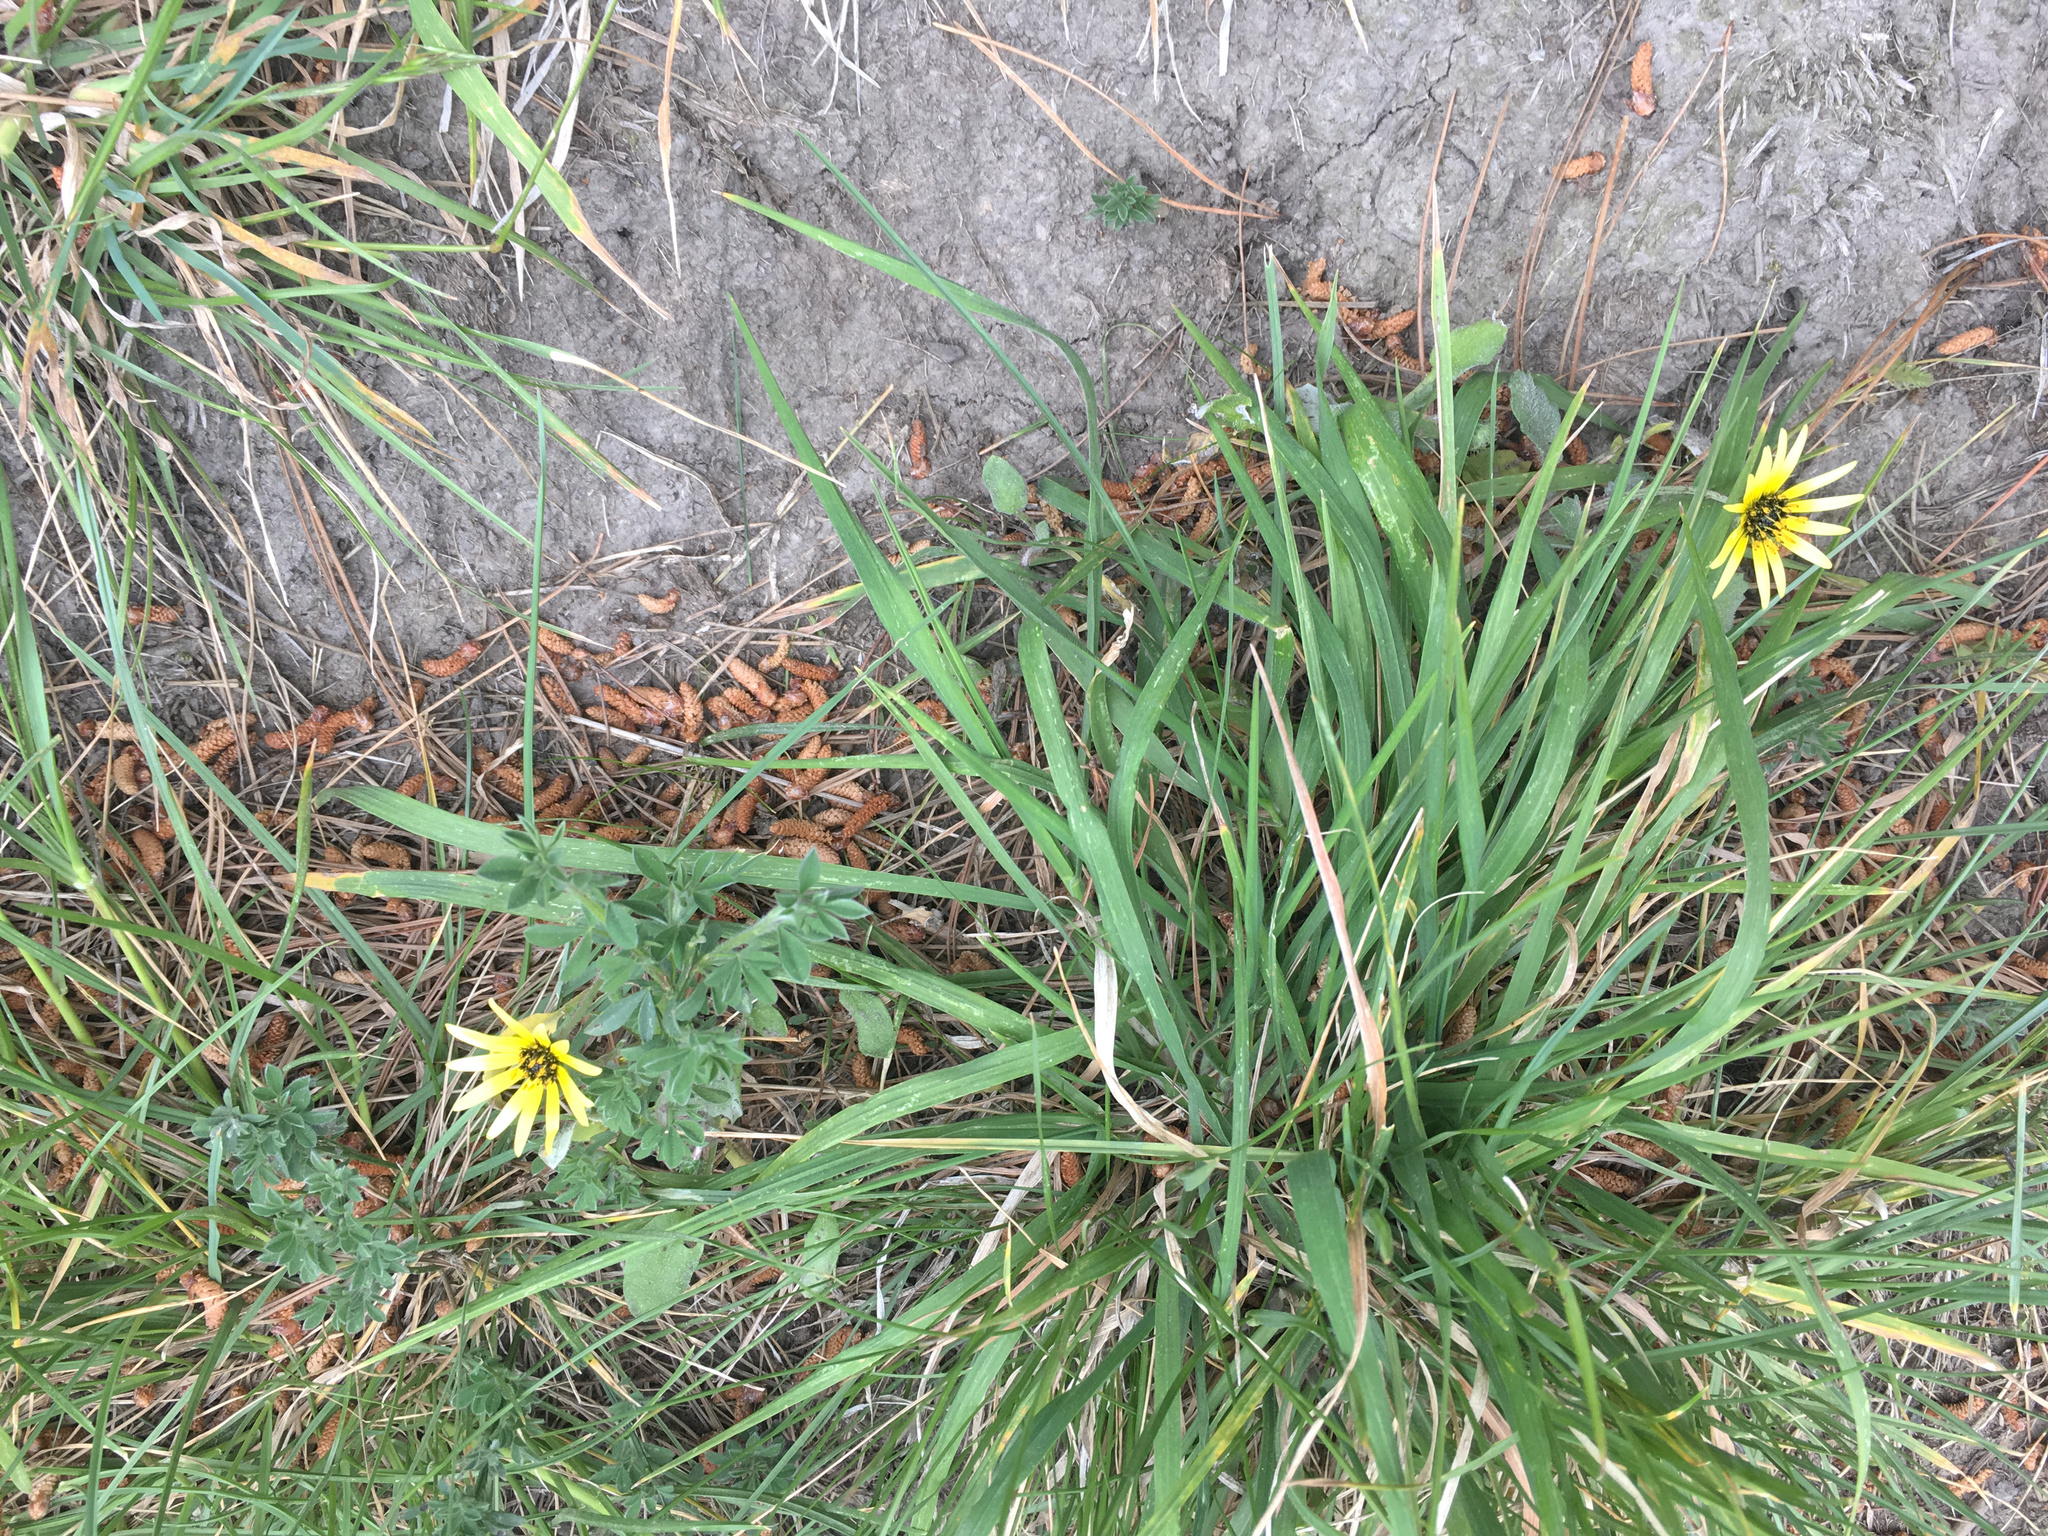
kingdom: Plantae
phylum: Tracheophyta
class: Magnoliopsida
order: Asterales
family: Asteraceae
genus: Arctotheca
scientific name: Arctotheca calendula
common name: Capeweed
